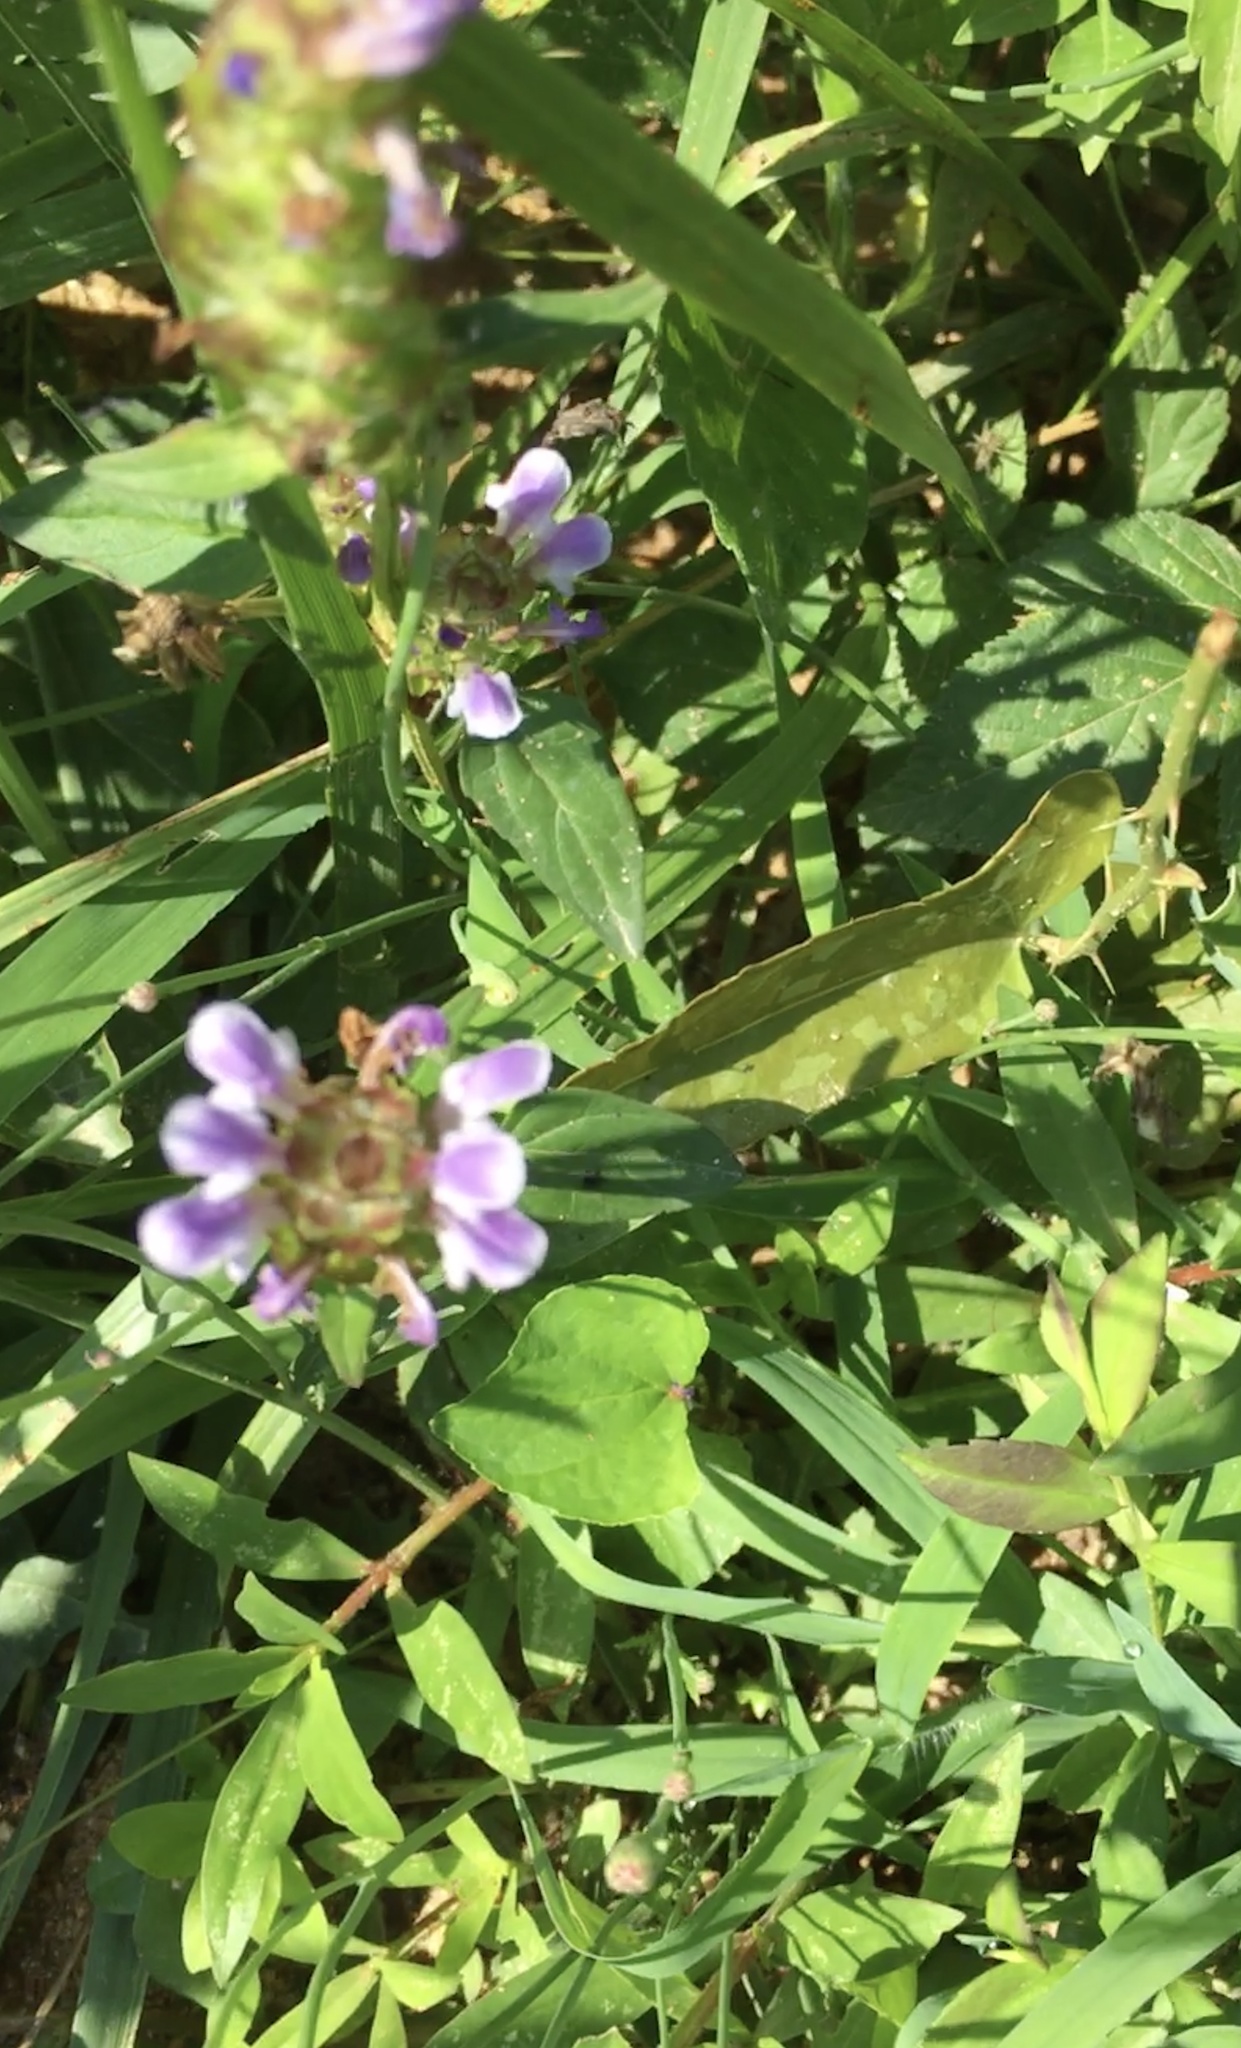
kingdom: Plantae
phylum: Tracheophyta
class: Magnoliopsida
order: Lamiales
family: Lamiaceae
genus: Prunella
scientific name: Prunella vulgaris
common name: Heal-all
